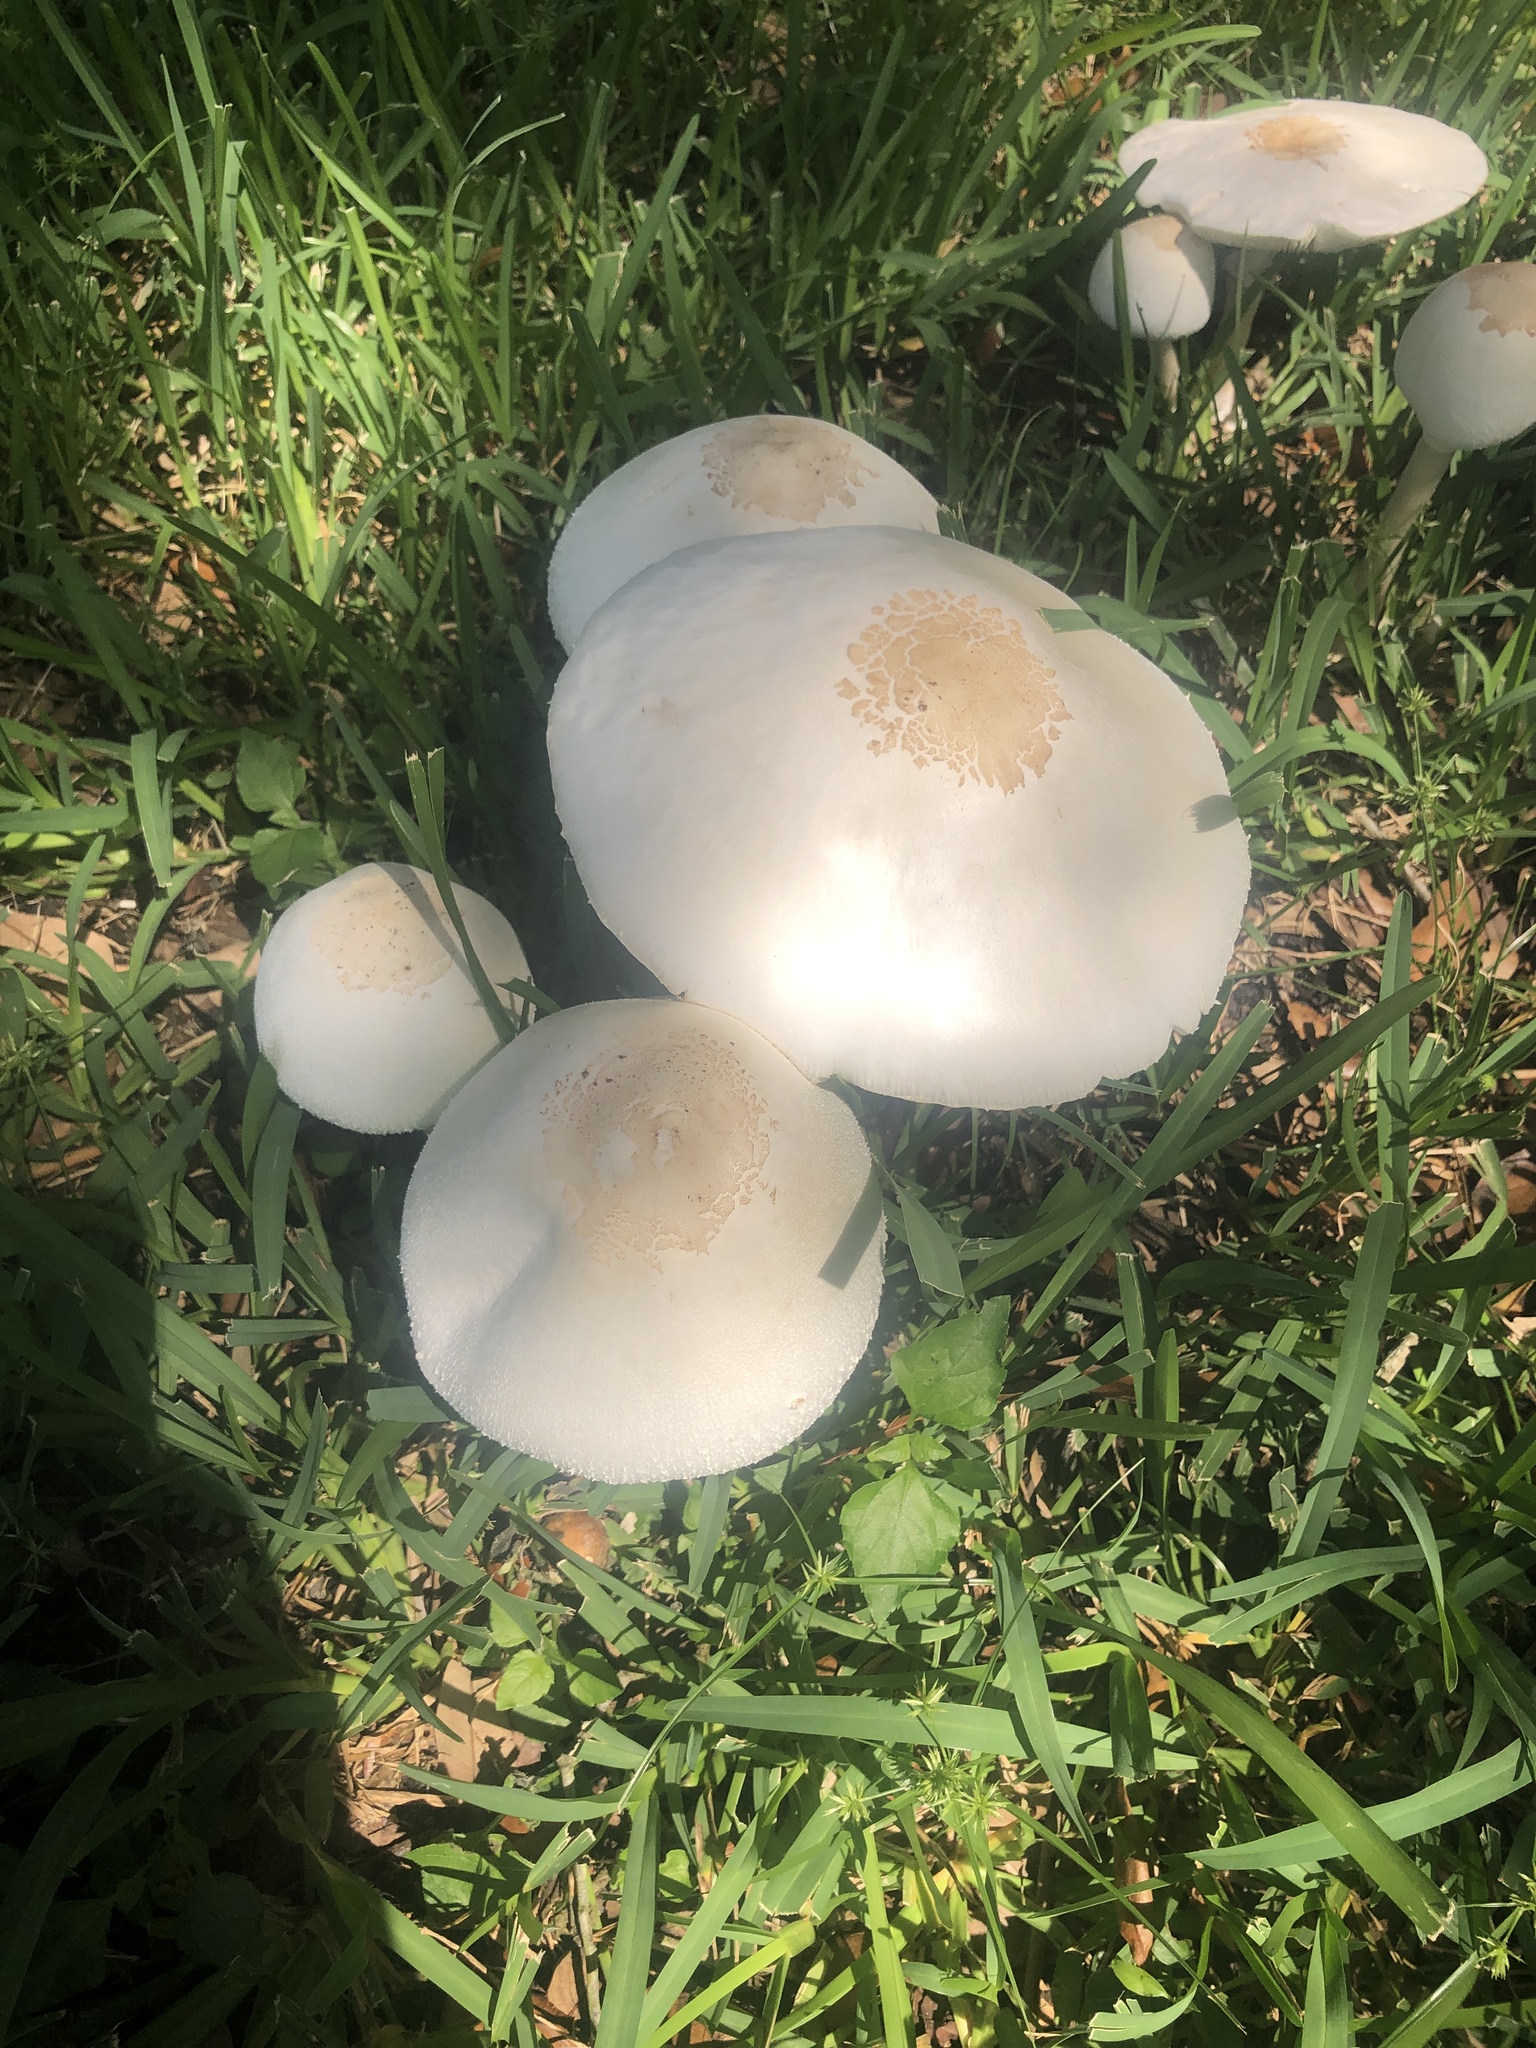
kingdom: Fungi
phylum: Basidiomycota
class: Agaricomycetes
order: Agaricales
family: Agaricaceae
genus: Chlorophyllum
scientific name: Chlorophyllum molybdites
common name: False parasol
